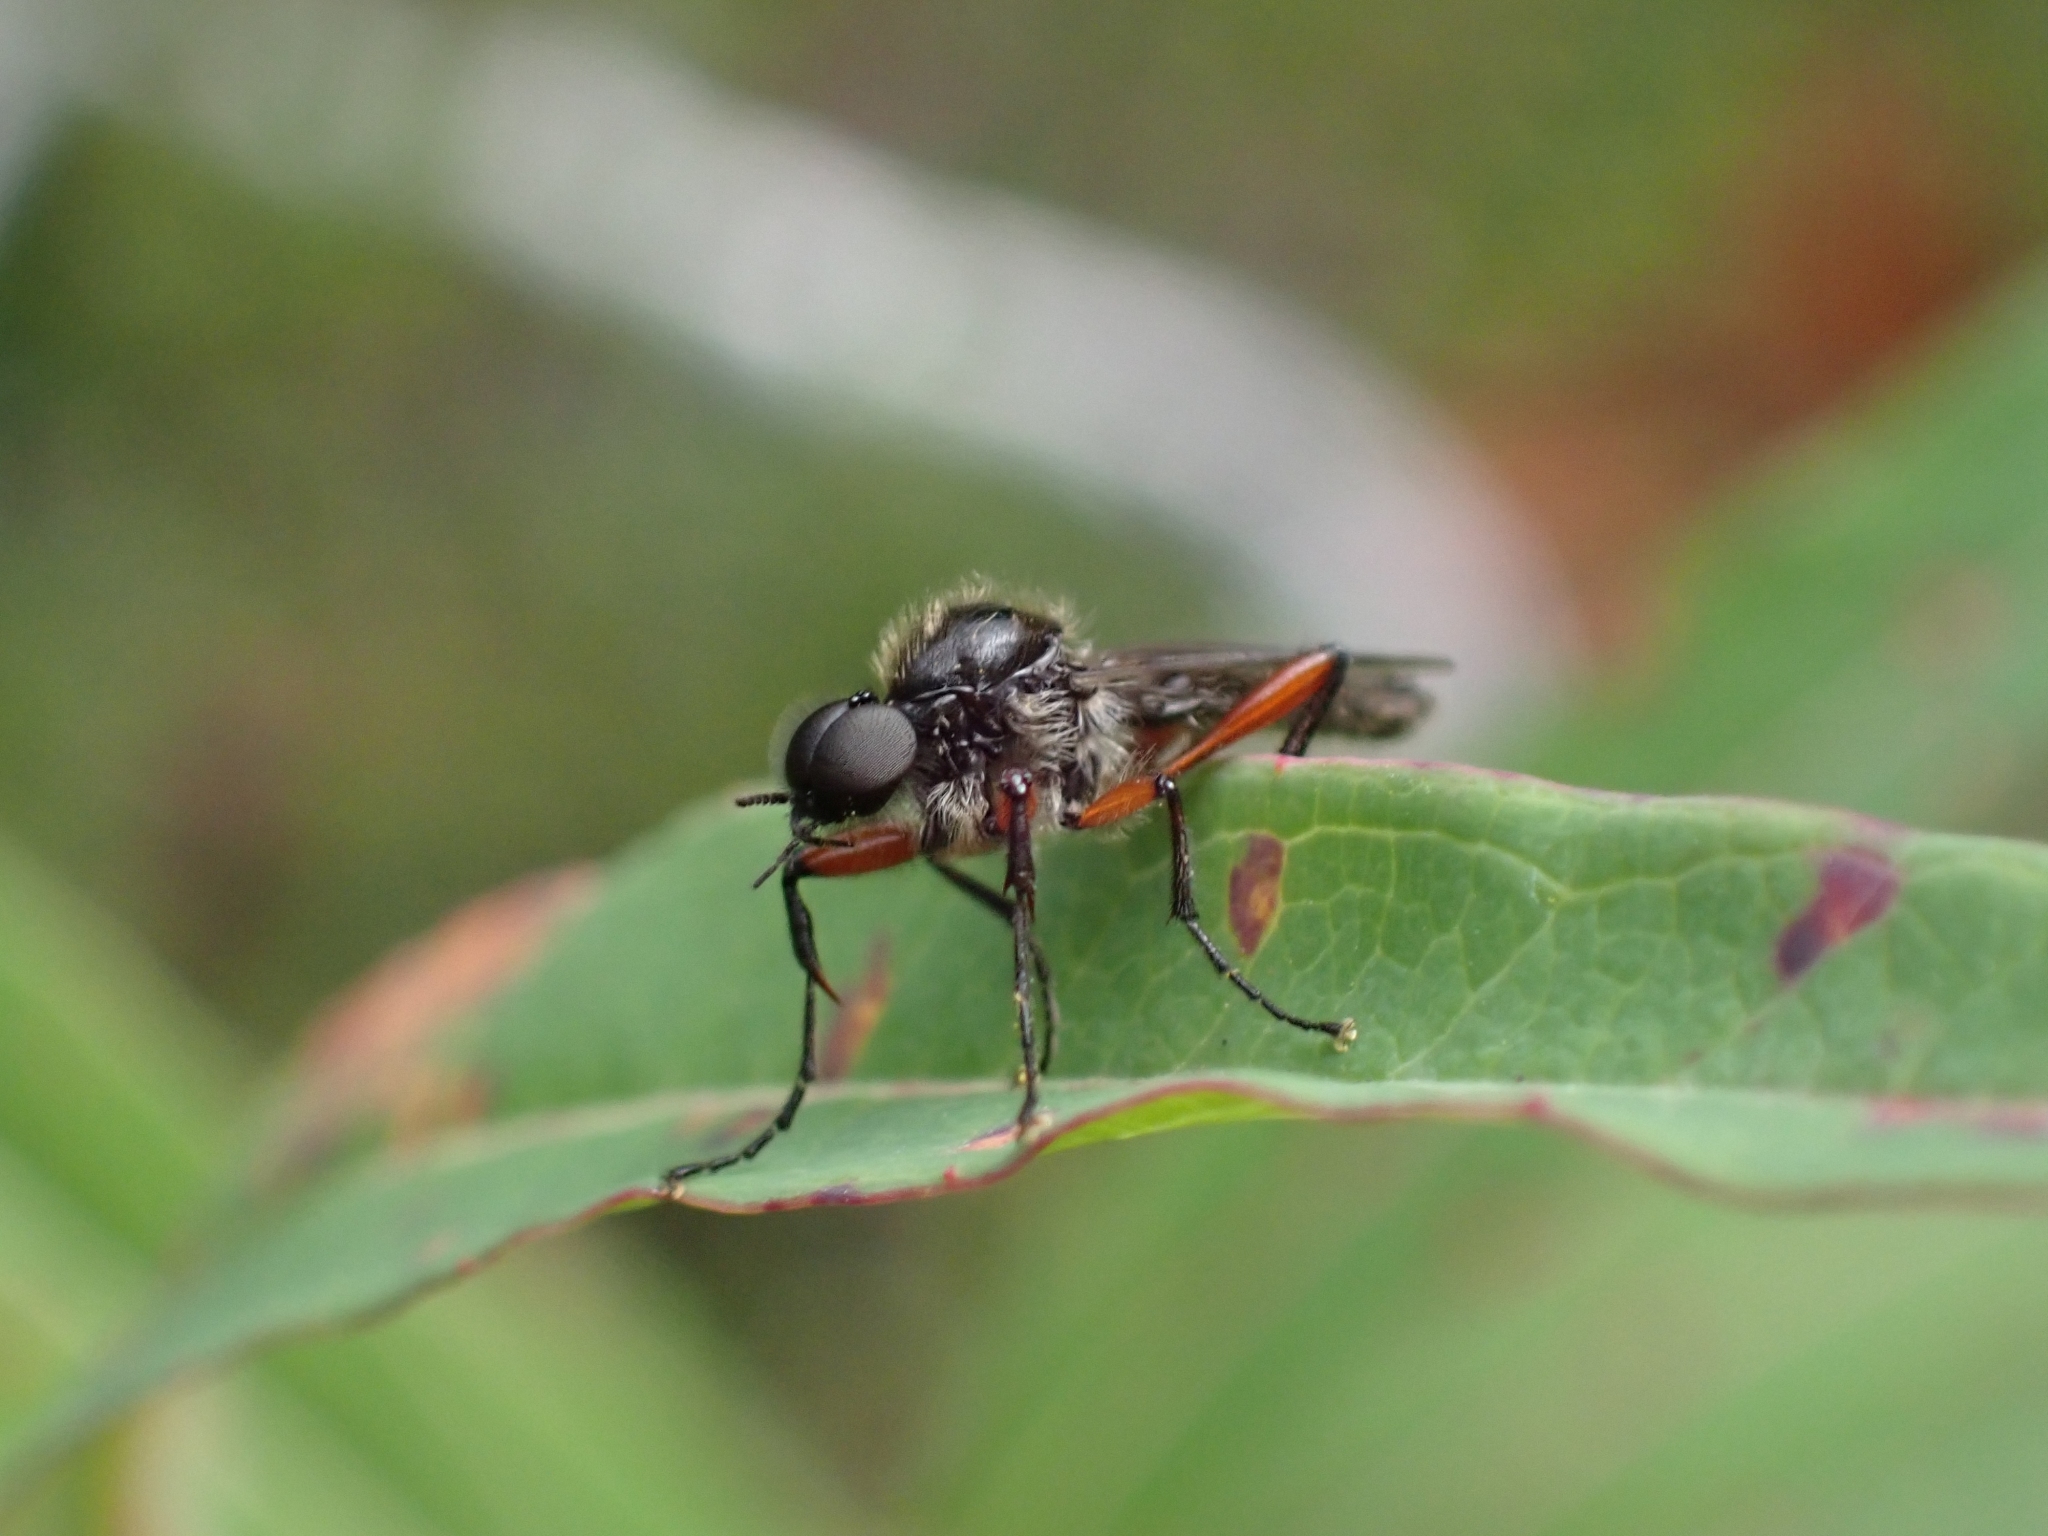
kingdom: Animalia
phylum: Arthropoda
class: Insecta
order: Diptera
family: Bibionidae
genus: Bibio
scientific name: Bibio holtii
